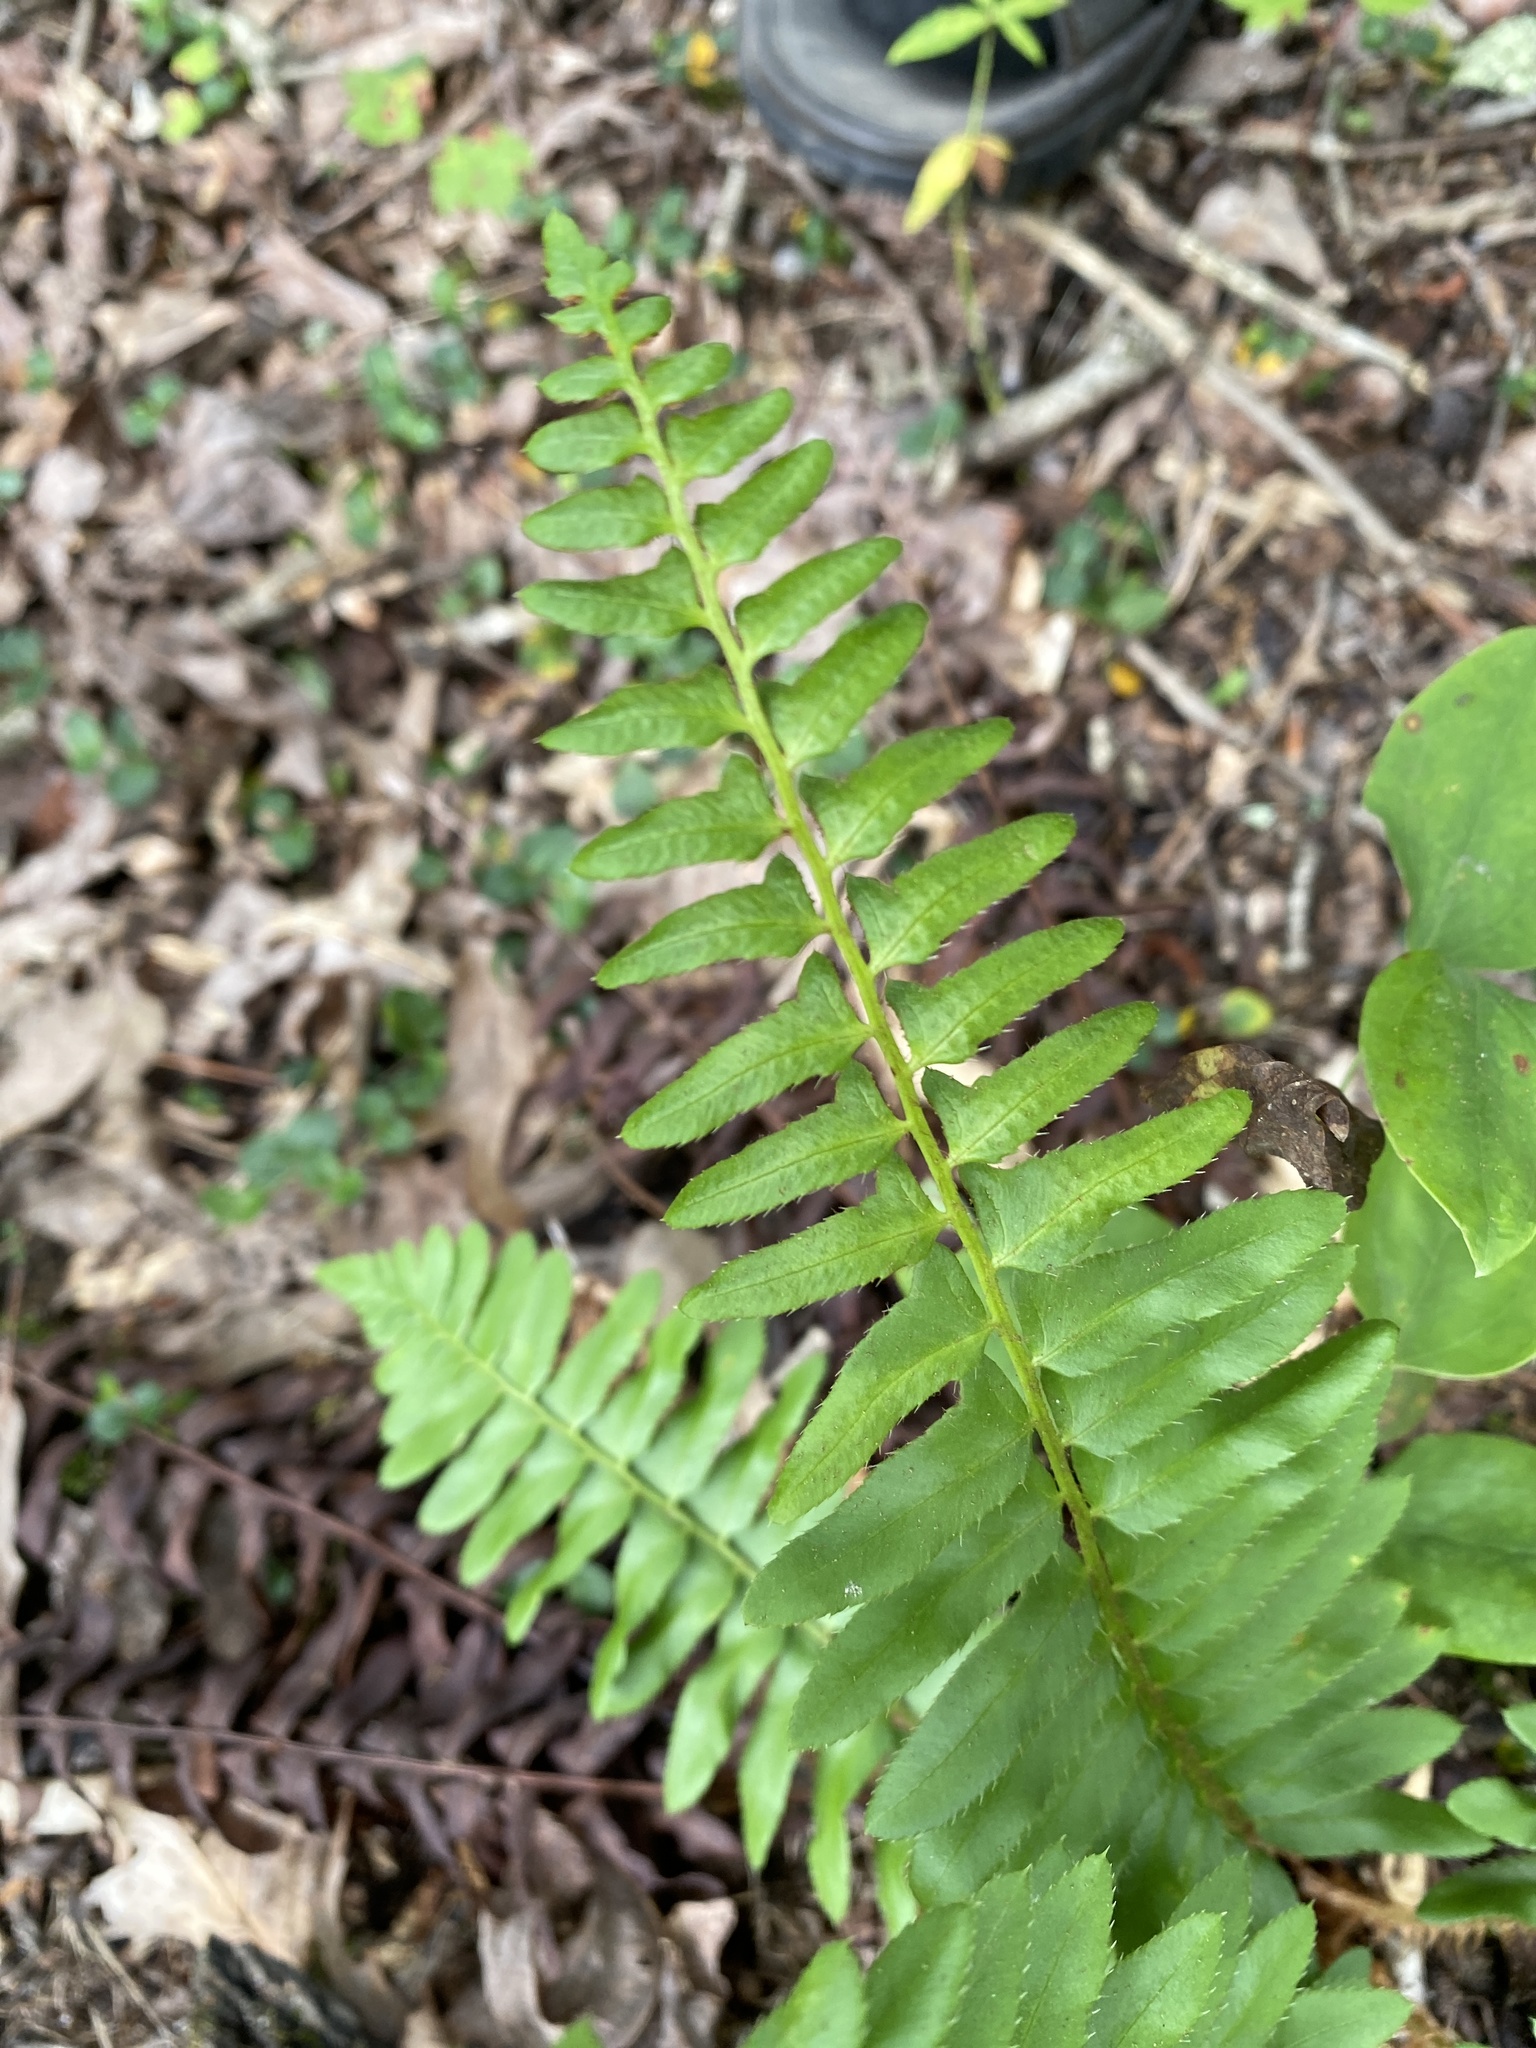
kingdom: Plantae
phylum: Tracheophyta
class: Polypodiopsida
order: Polypodiales
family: Dryopteridaceae
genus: Polystichum
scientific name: Polystichum acrostichoides
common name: Christmas fern
